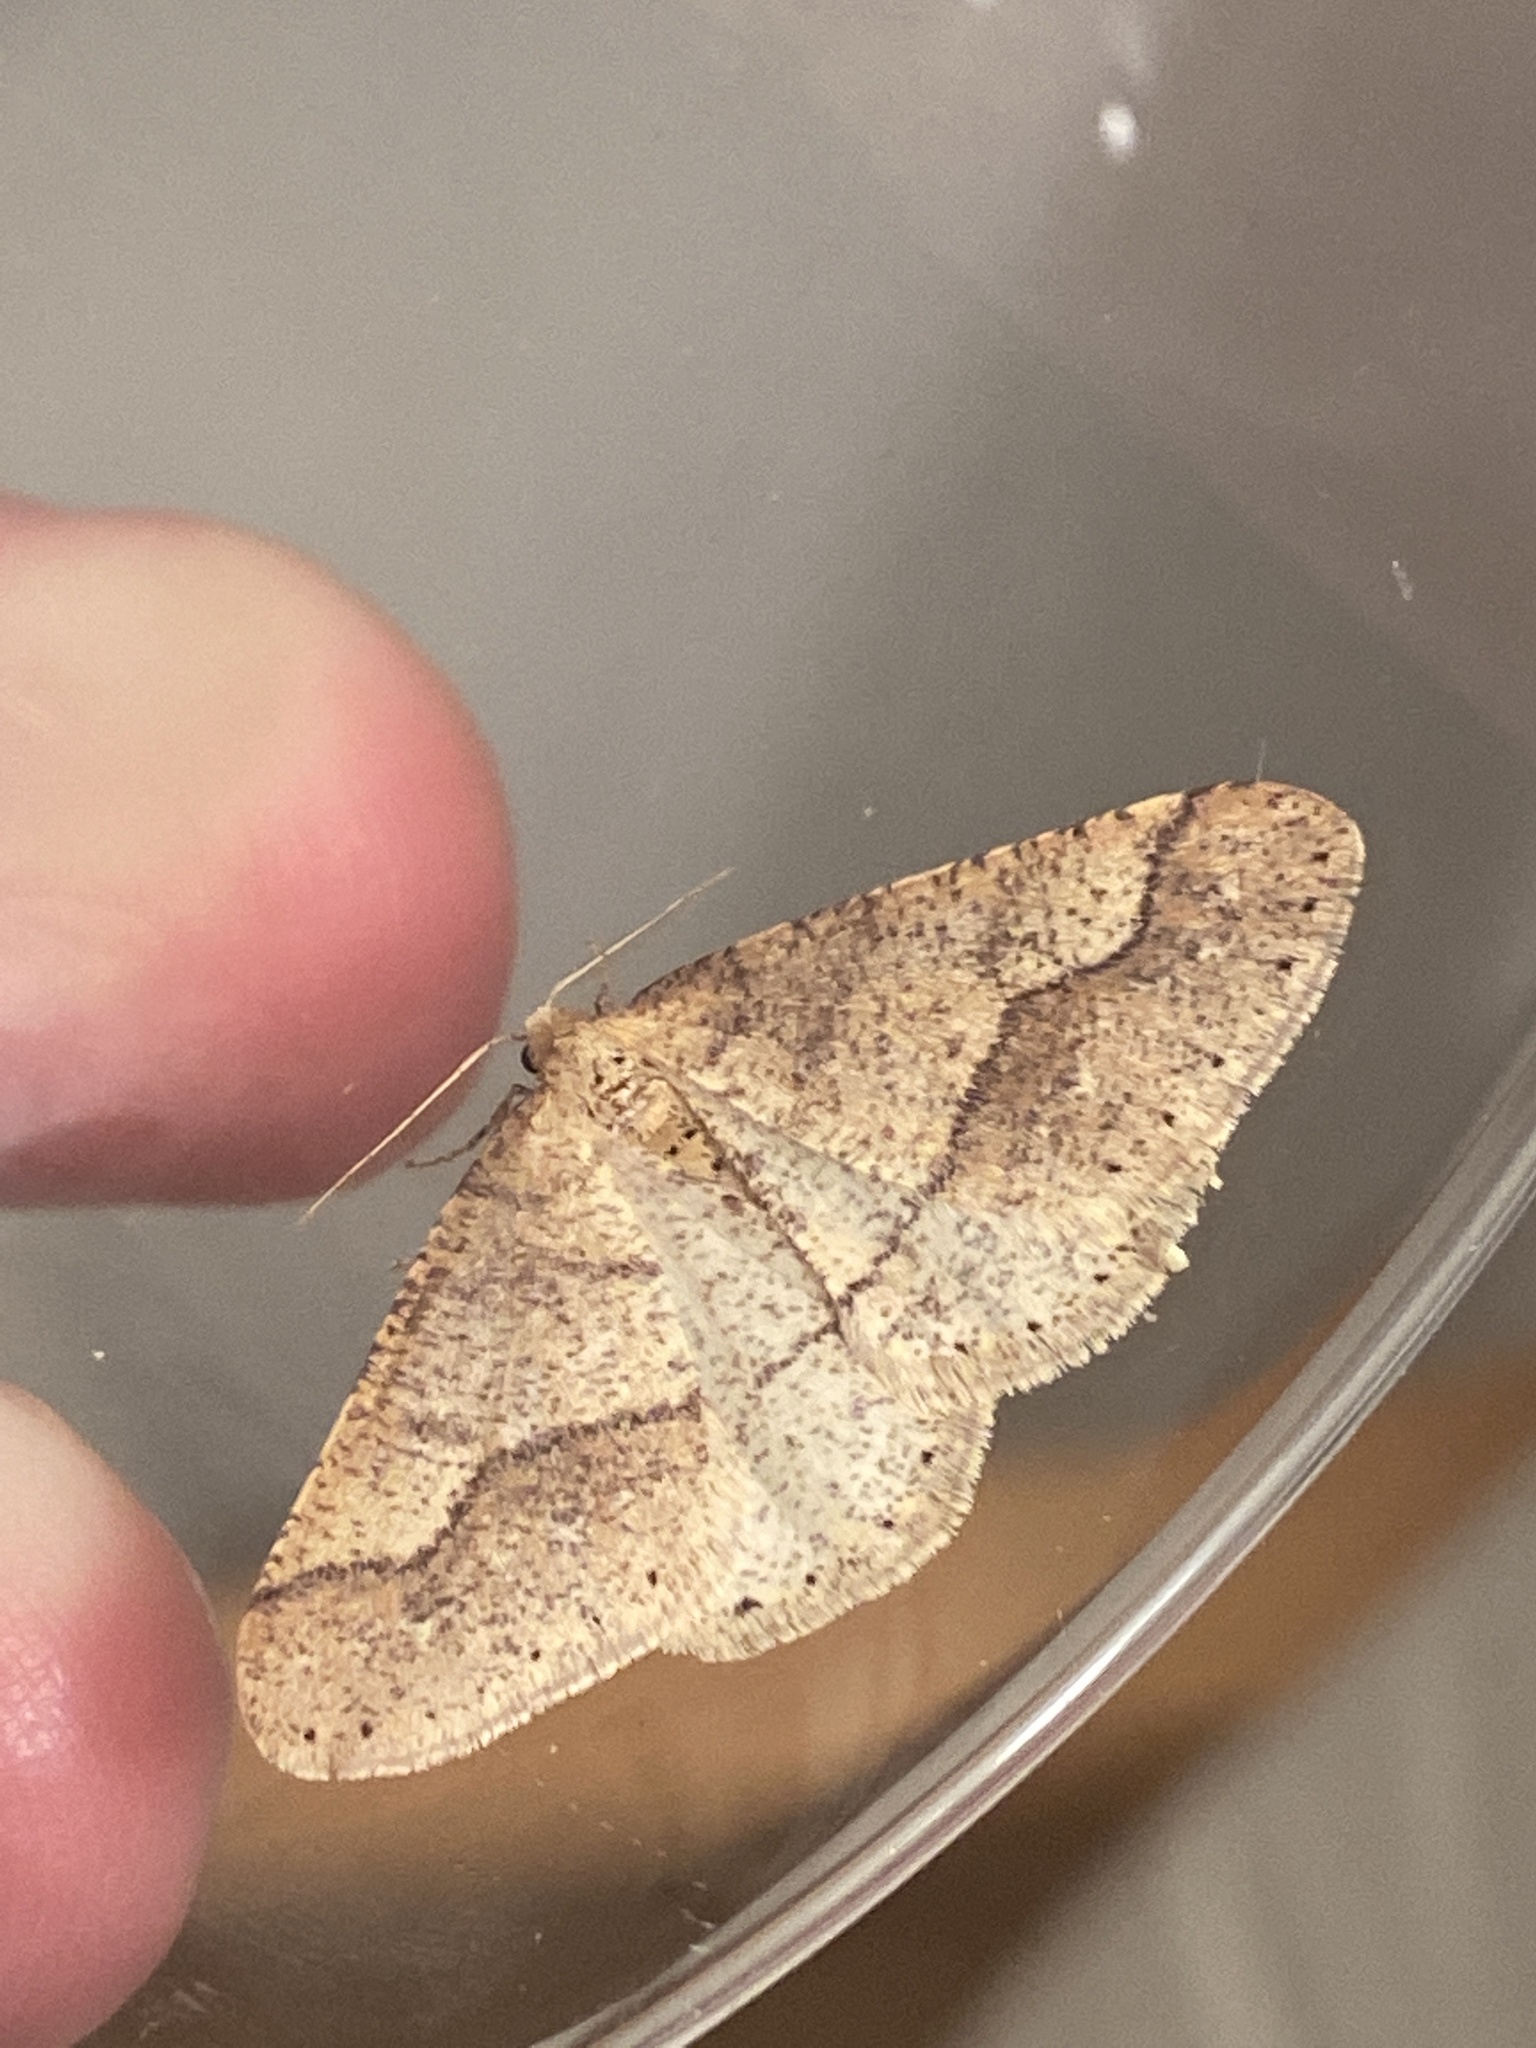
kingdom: Animalia
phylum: Arthropoda
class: Insecta
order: Lepidoptera
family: Geometridae
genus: Agriopis
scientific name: Agriopis marginaria
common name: Dotted border
